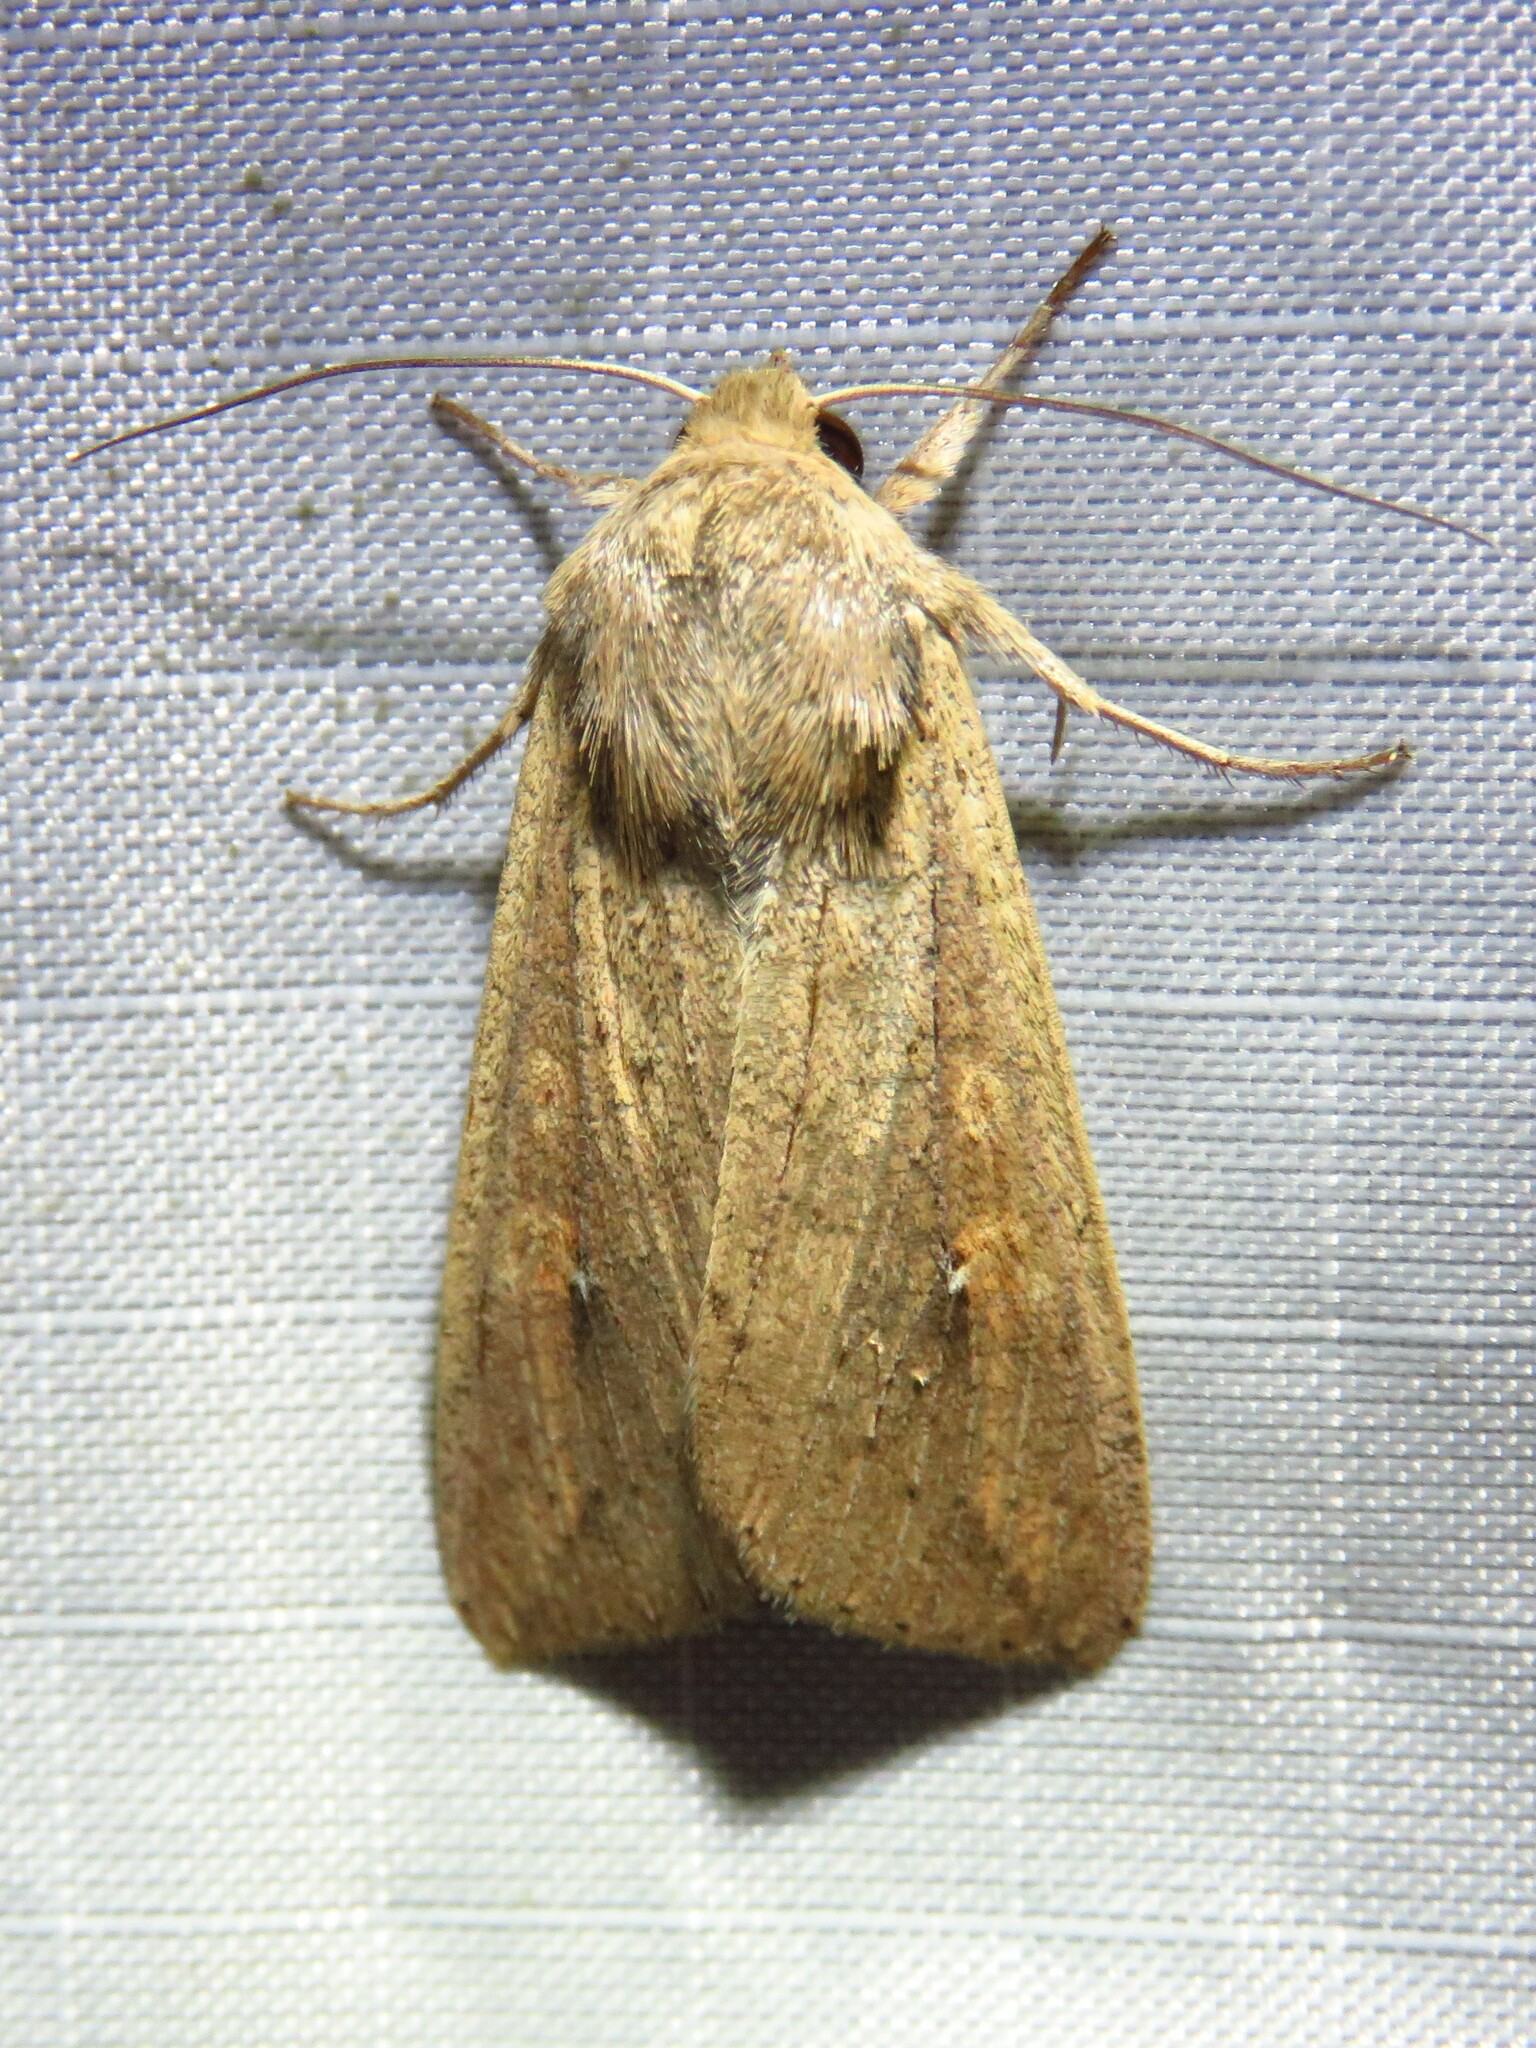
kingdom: Animalia
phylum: Arthropoda
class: Insecta
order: Lepidoptera
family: Noctuidae
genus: Mythimna
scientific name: Mythimna unipuncta
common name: White-speck
